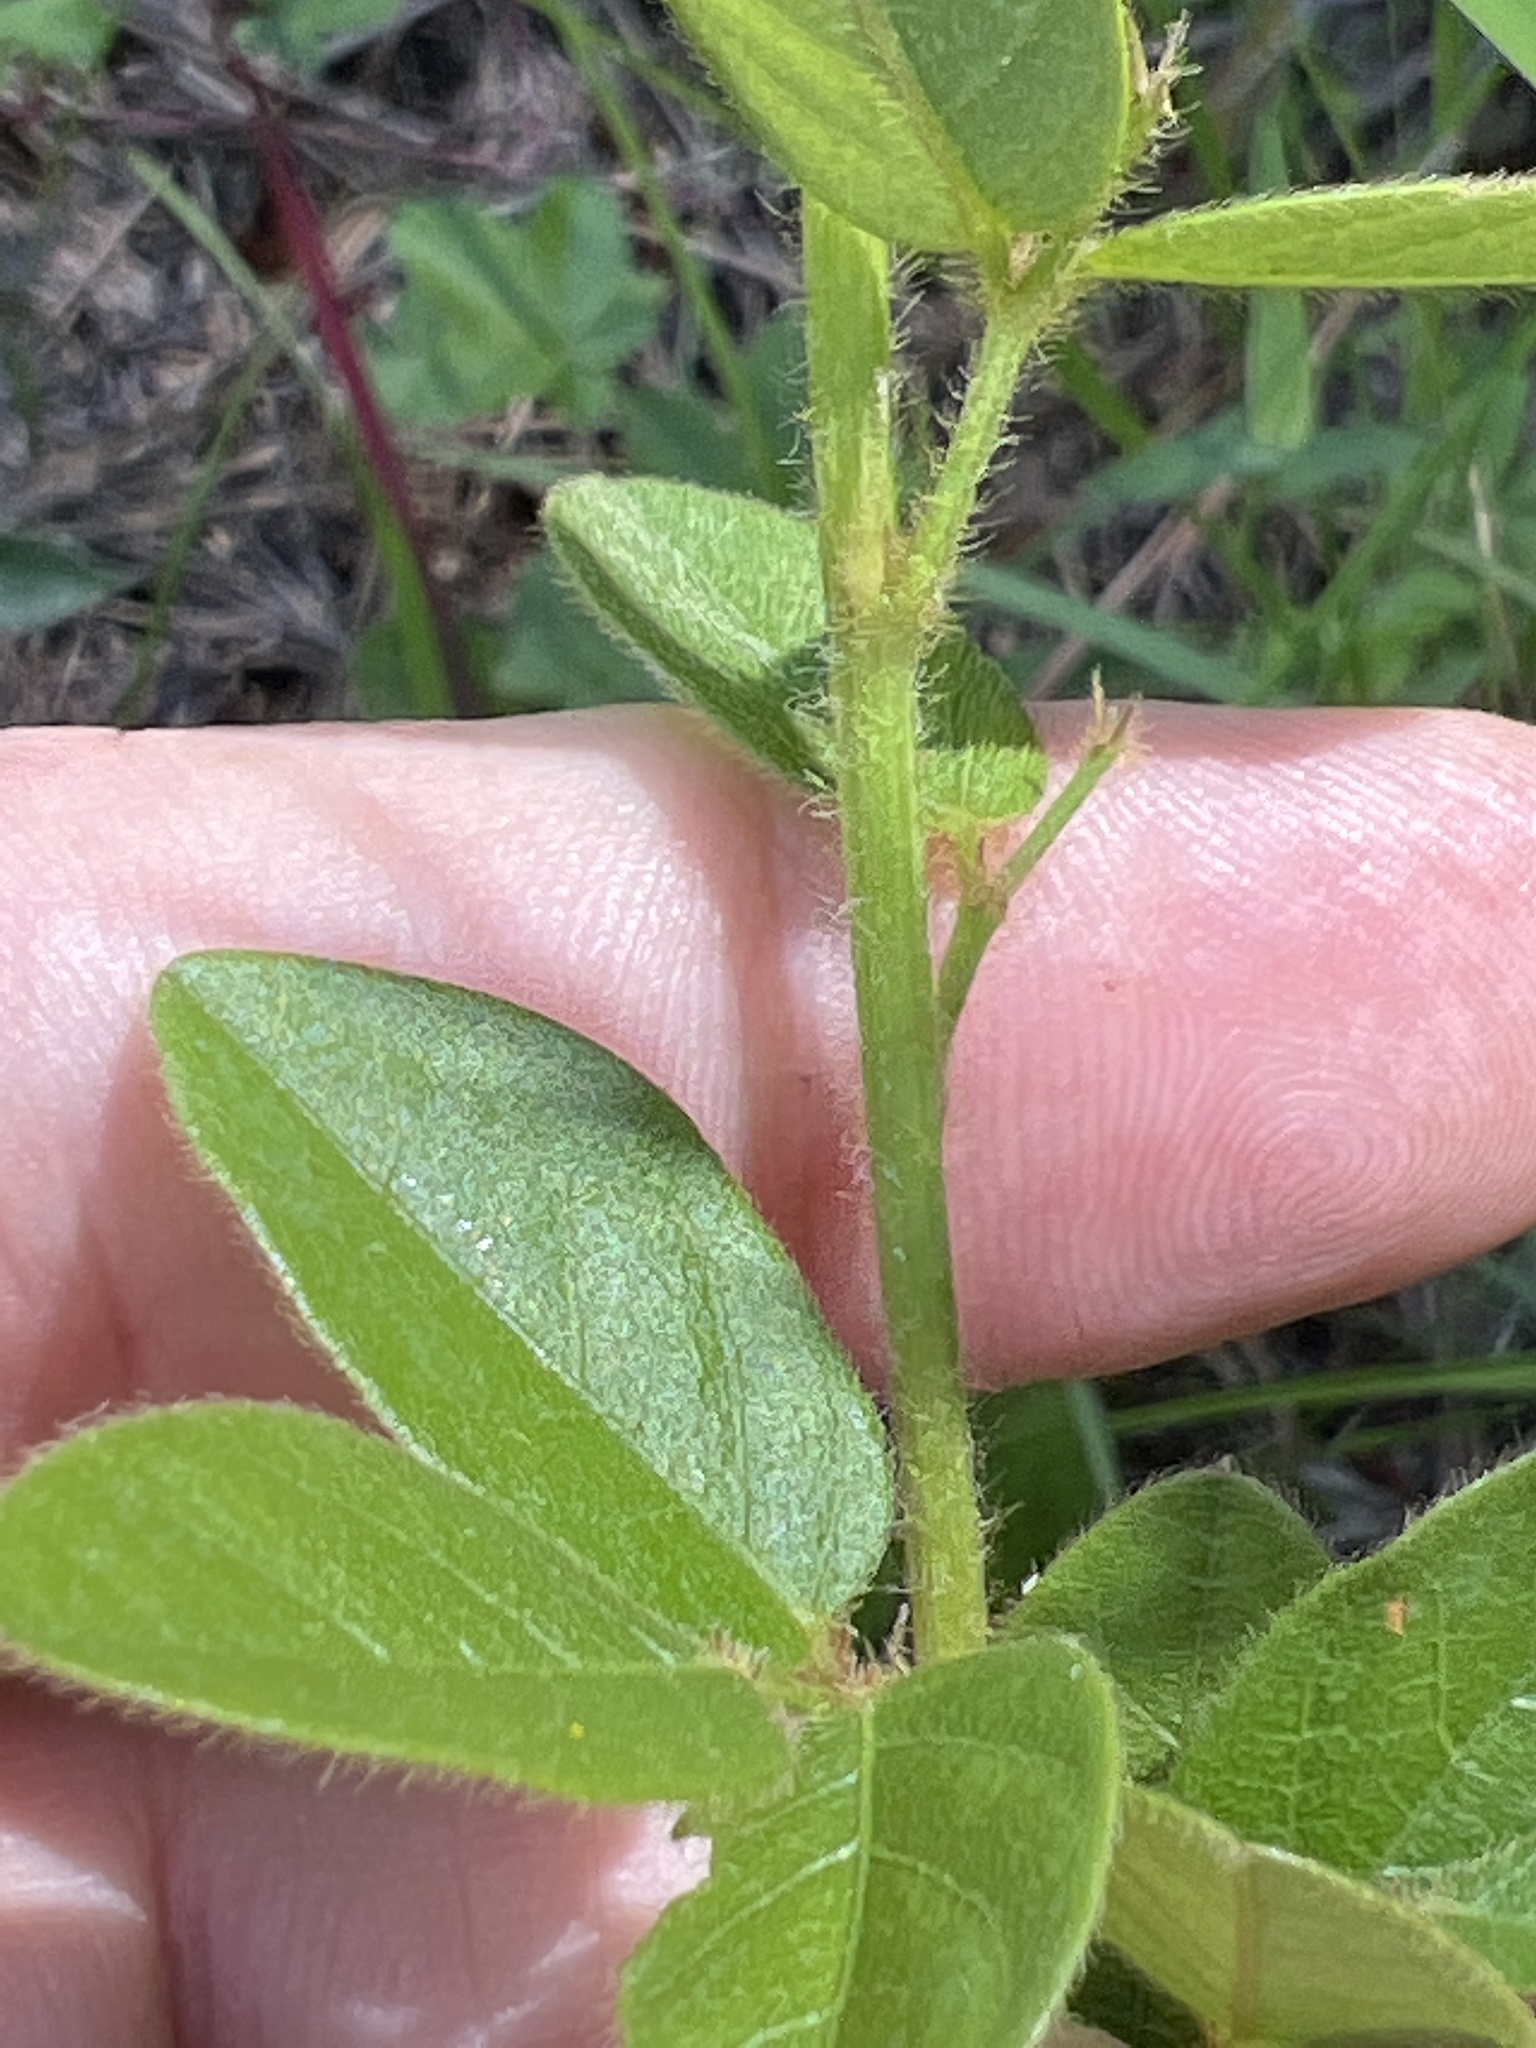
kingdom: Plantae
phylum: Tracheophyta
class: Magnoliopsida
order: Fabales
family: Fabaceae
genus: Lespedeza
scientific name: Lespedeza hirta
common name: Hairy lespedeza
